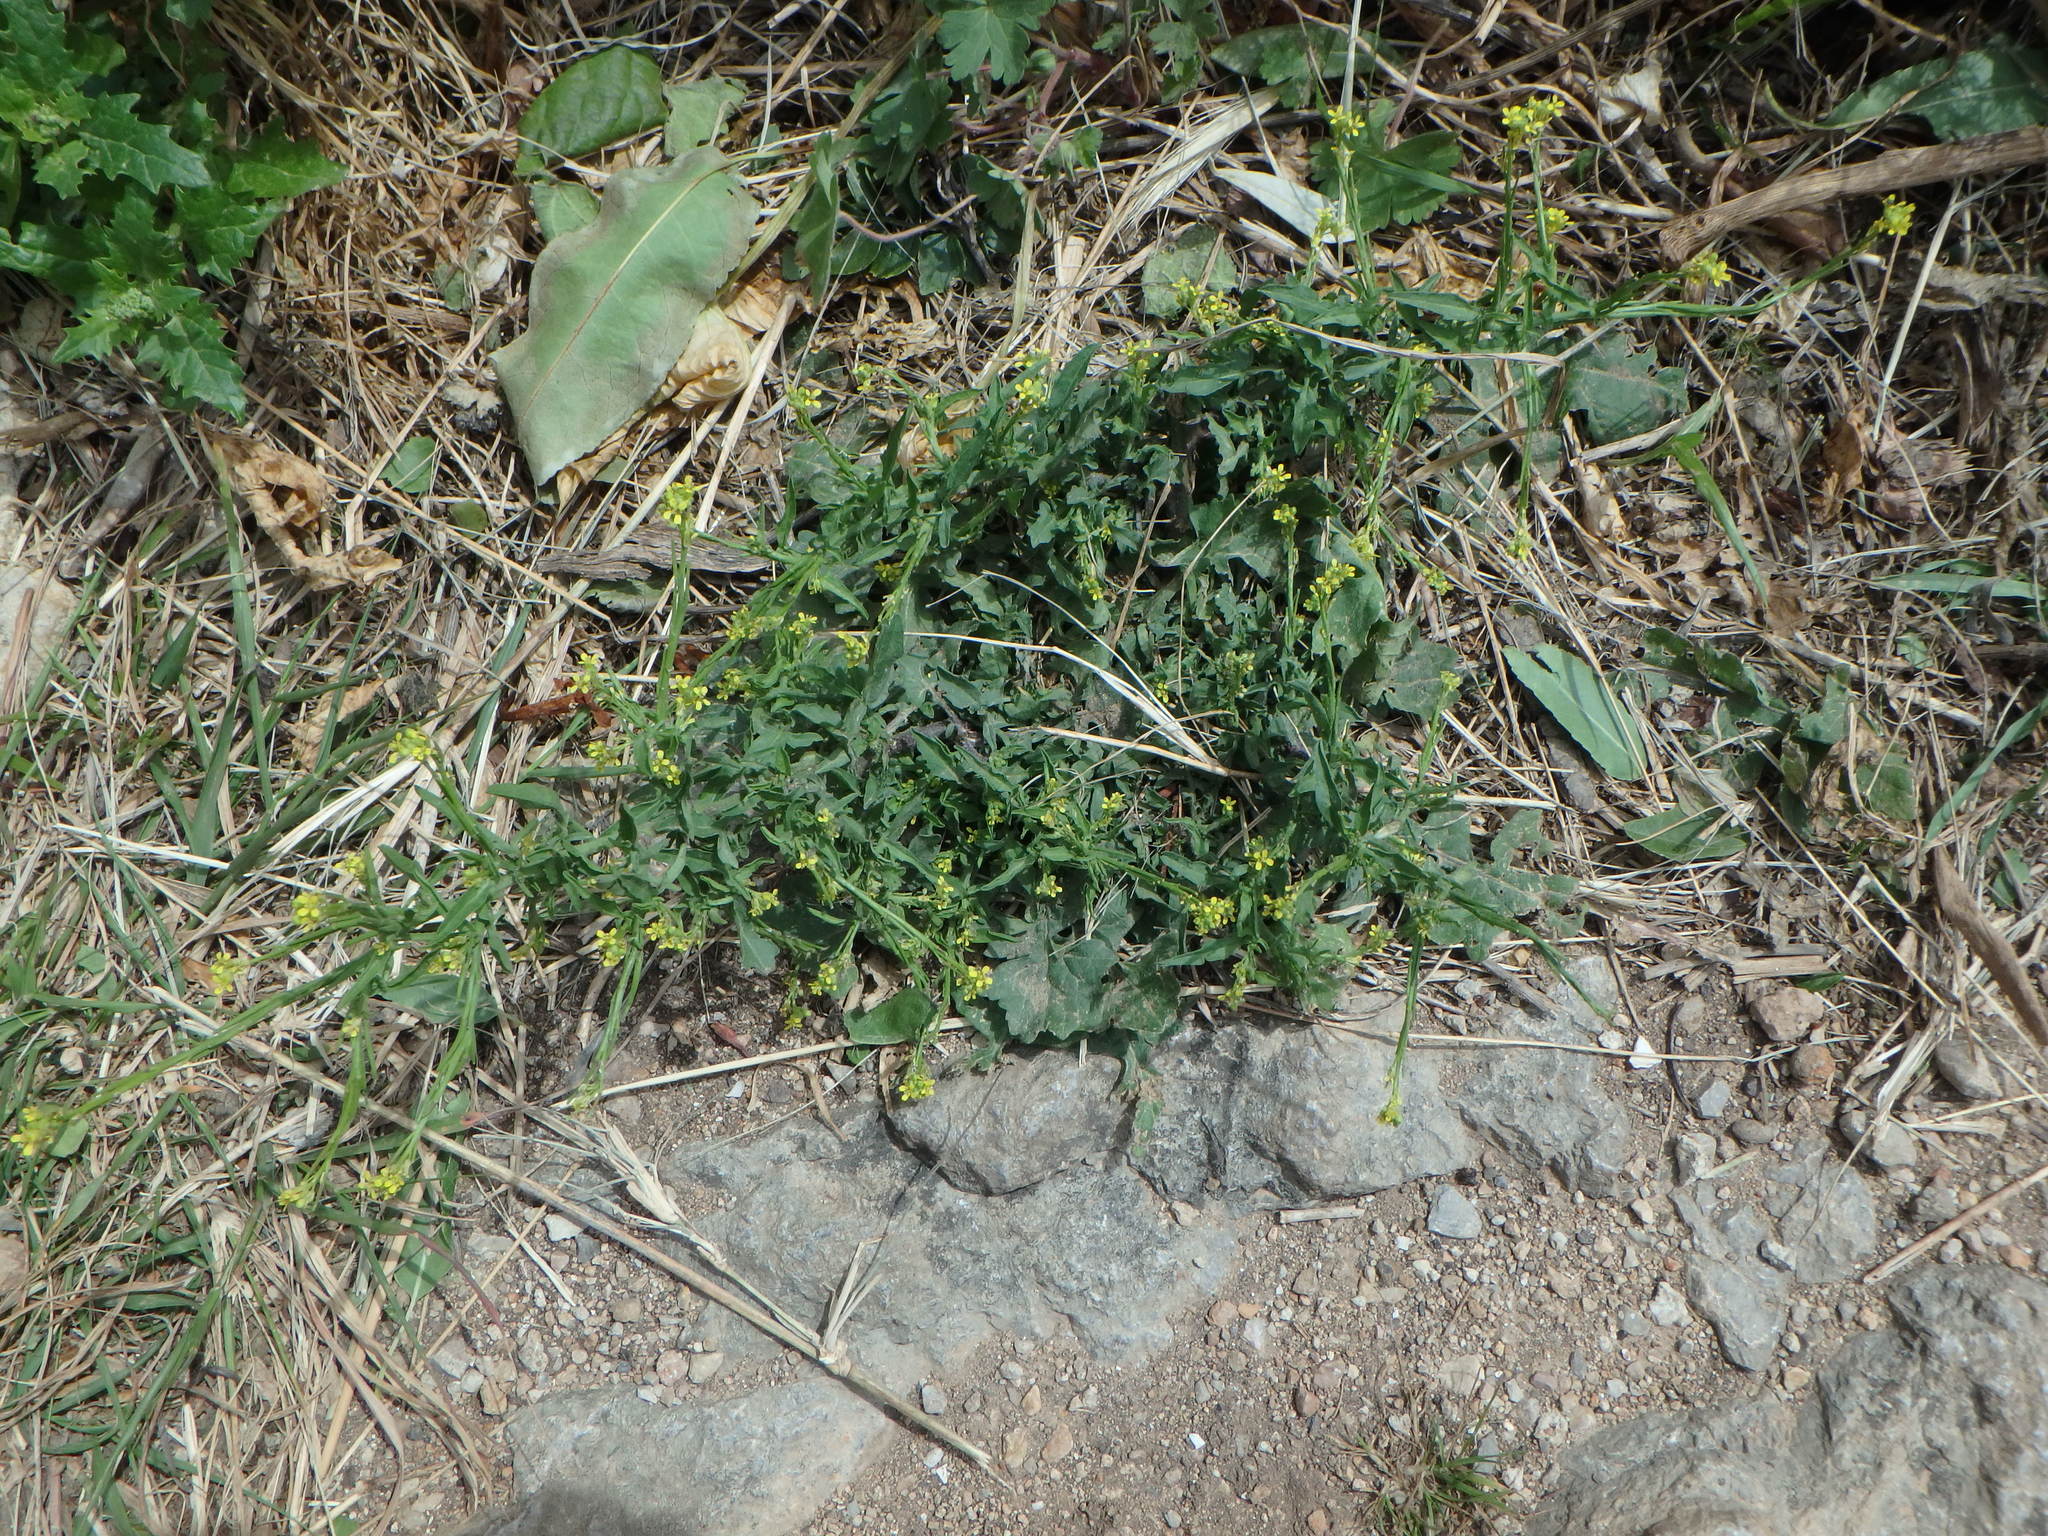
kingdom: Plantae
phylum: Tracheophyta
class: Magnoliopsida
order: Brassicales
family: Brassicaceae
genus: Sisymbrium
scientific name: Sisymbrium officinale
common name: Hedge mustard
